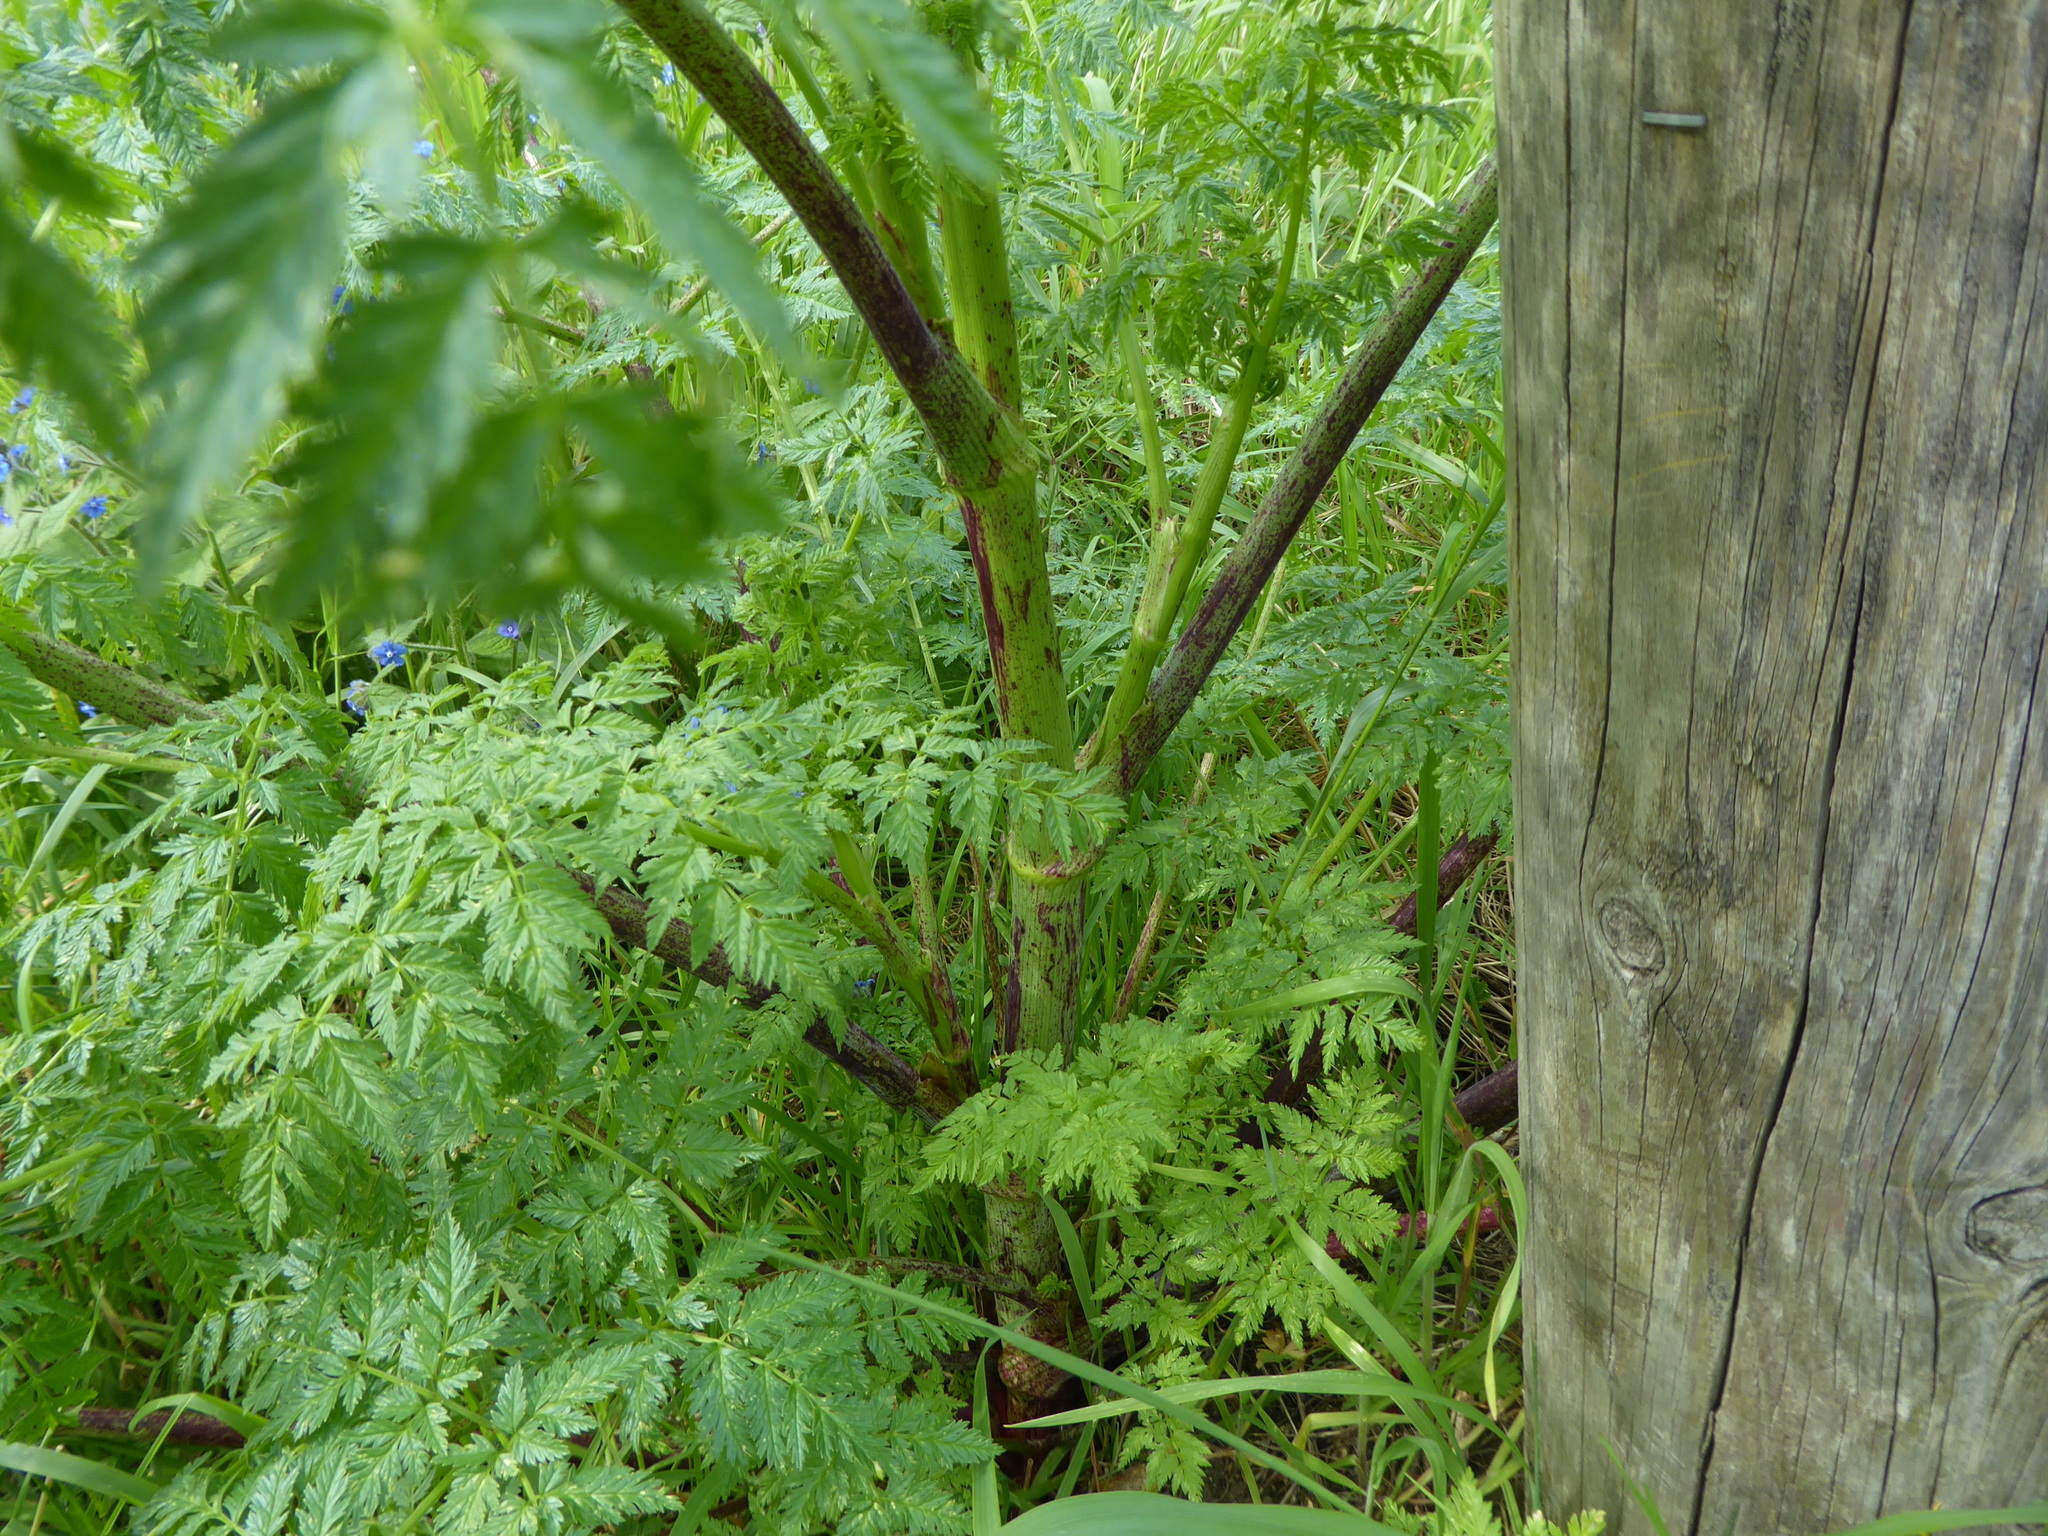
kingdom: Plantae
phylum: Tracheophyta
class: Magnoliopsida
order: Apiales
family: Apiaceae
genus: Conium
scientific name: Conium maculatum
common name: Hemlock
